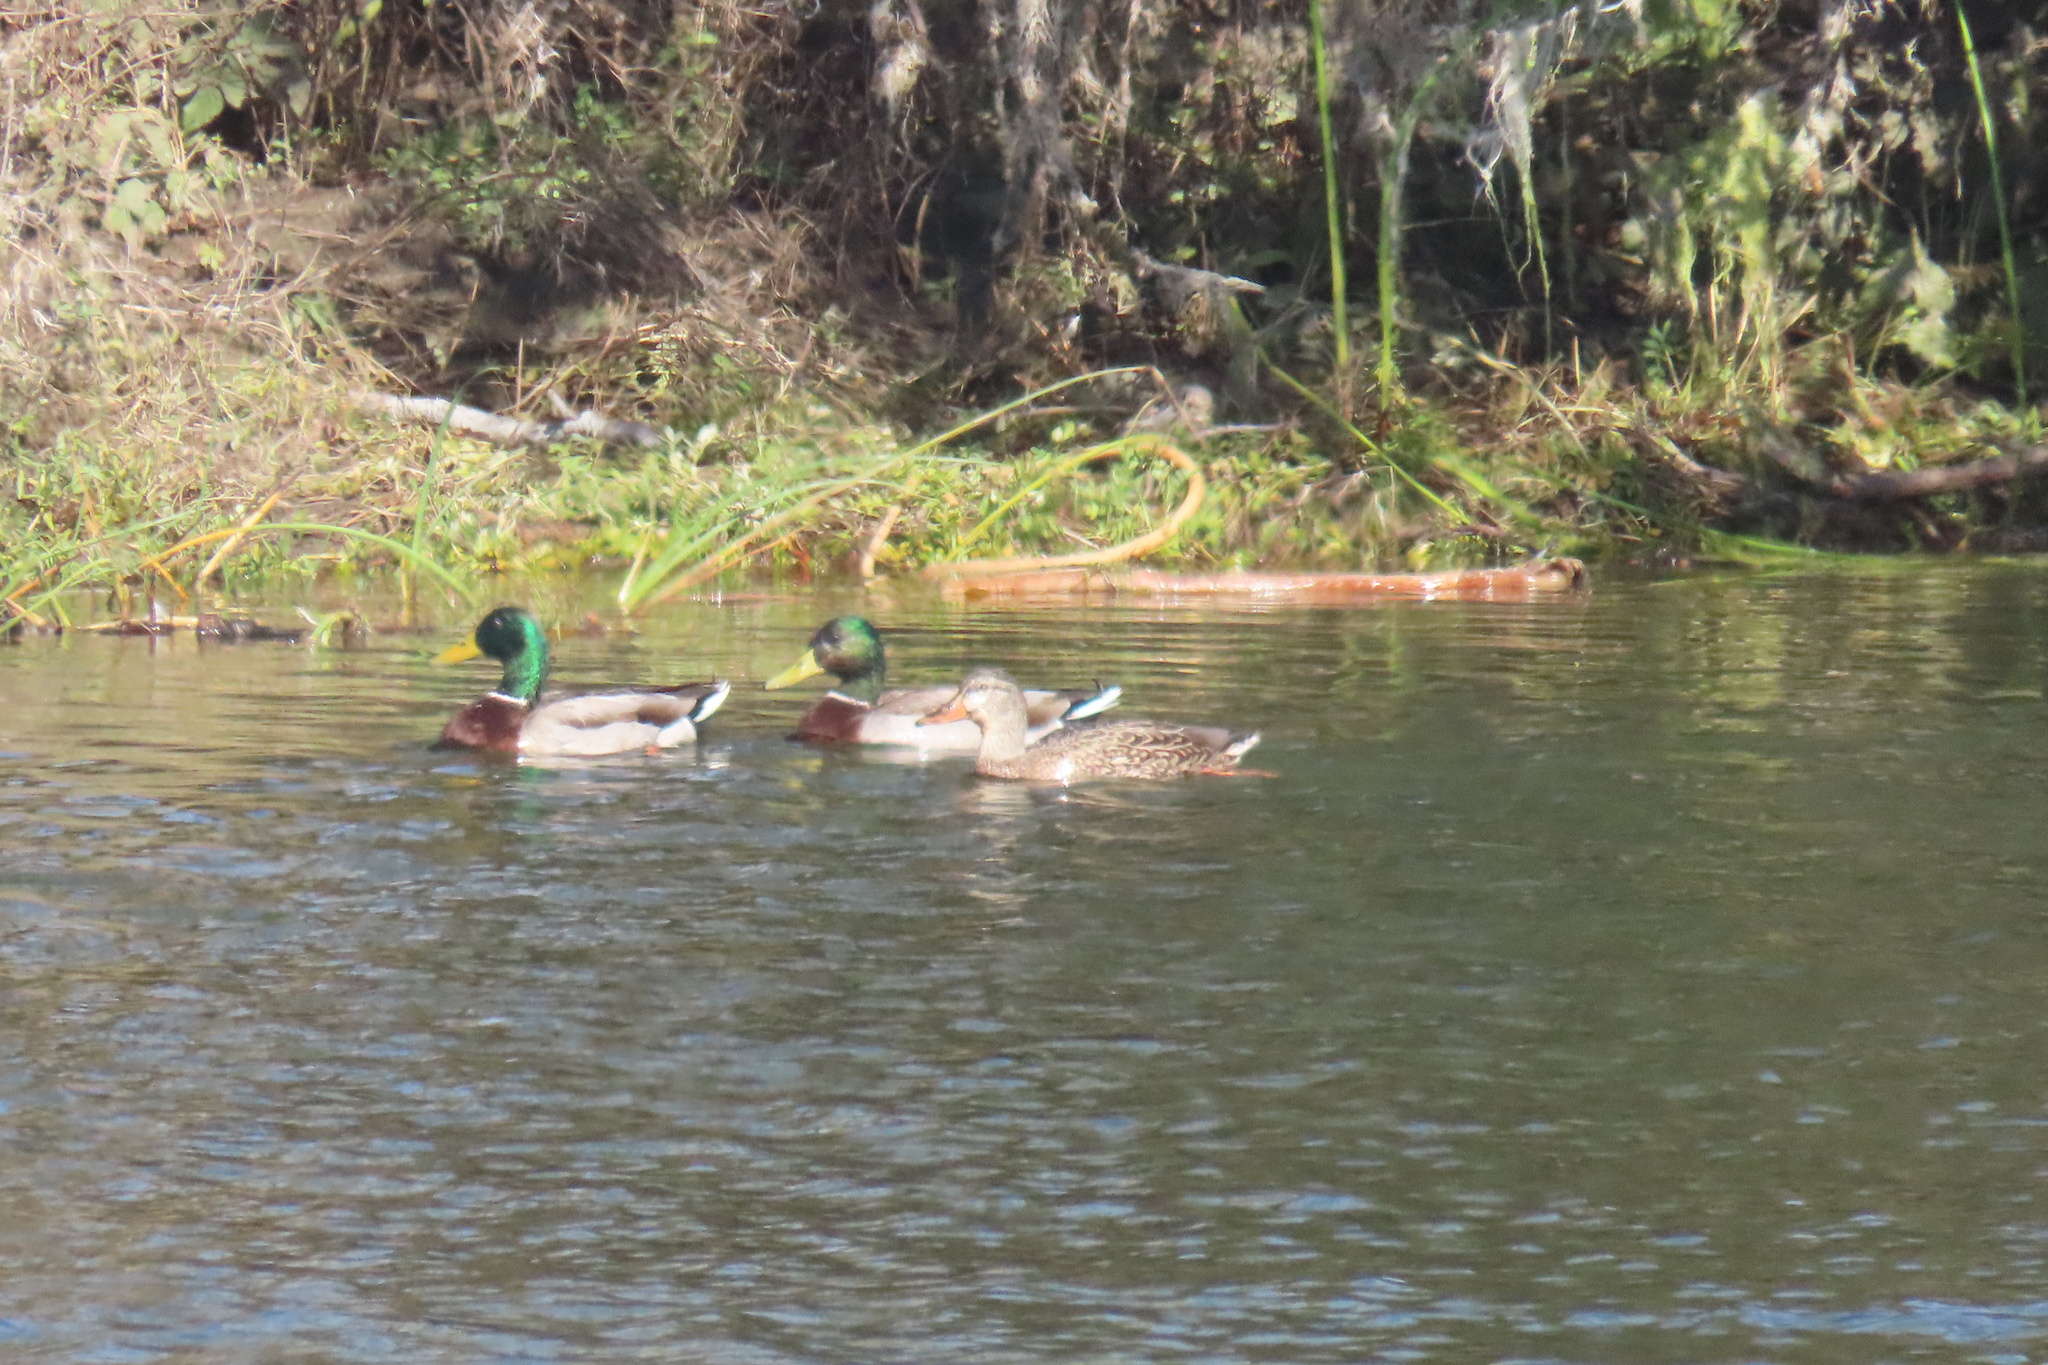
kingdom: Animalia
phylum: Chordata
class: Aves
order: Anseriformes
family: Anatidae
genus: Anas
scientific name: Anas platyrhynchos
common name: Mallard
